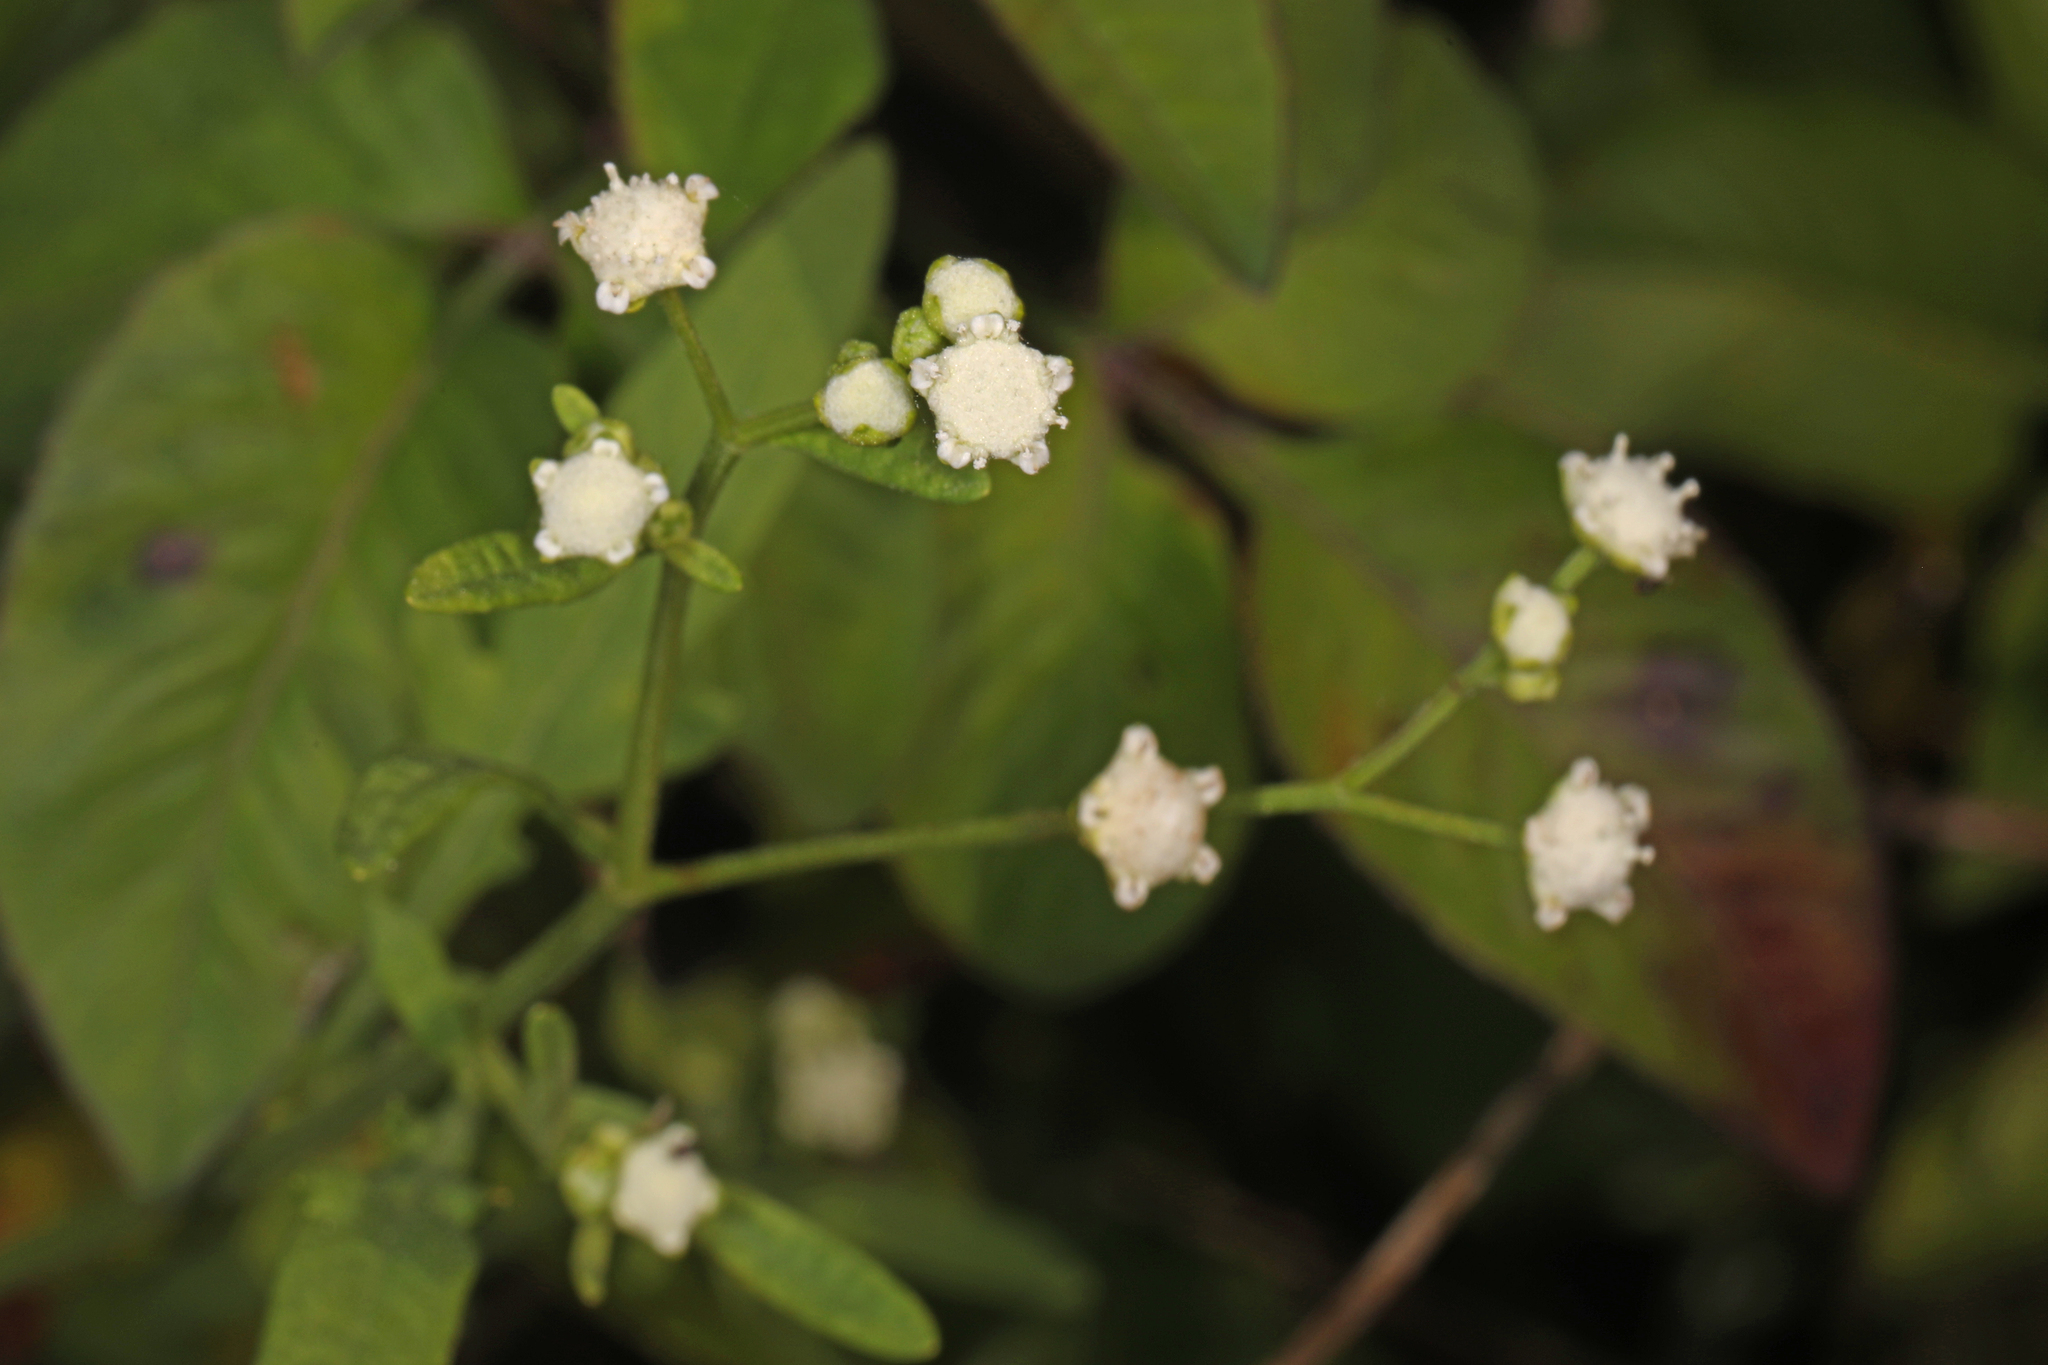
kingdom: Plantae
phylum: Tracheophyta
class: Magnoliopsida
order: Asterales
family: Asteraceae
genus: Parthenium
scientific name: Parthenium hysterophorus
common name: Santa maria feverfew
